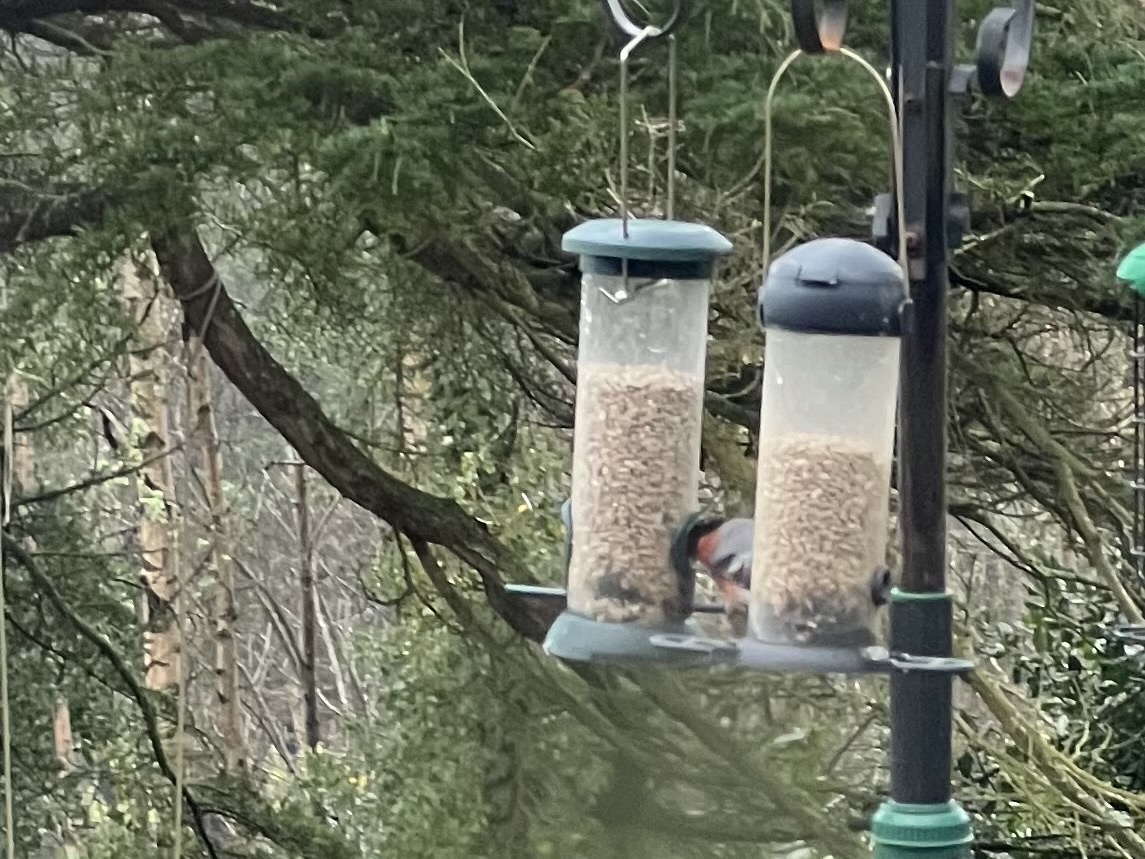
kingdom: Animalia
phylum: Chordata
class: Aves
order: Passeriformes
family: Fringillidae
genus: Pyrrhula
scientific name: Pyrrhula pyrrhula
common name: Eurasian bullfinch
